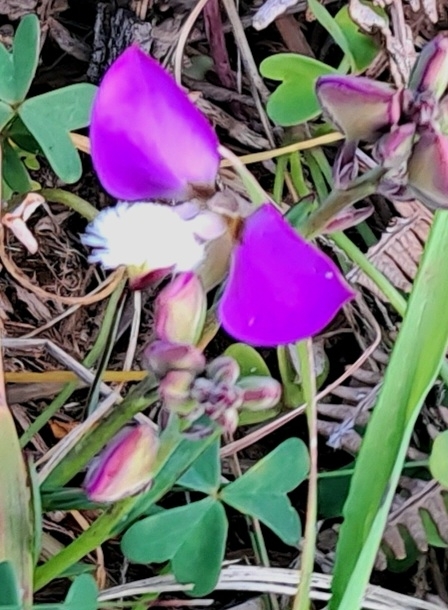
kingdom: Plantae
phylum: Tracheophyta
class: Magnoliopsida
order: Fabales
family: Polygalaceae
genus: Polygala
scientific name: Polygala bracteolata
